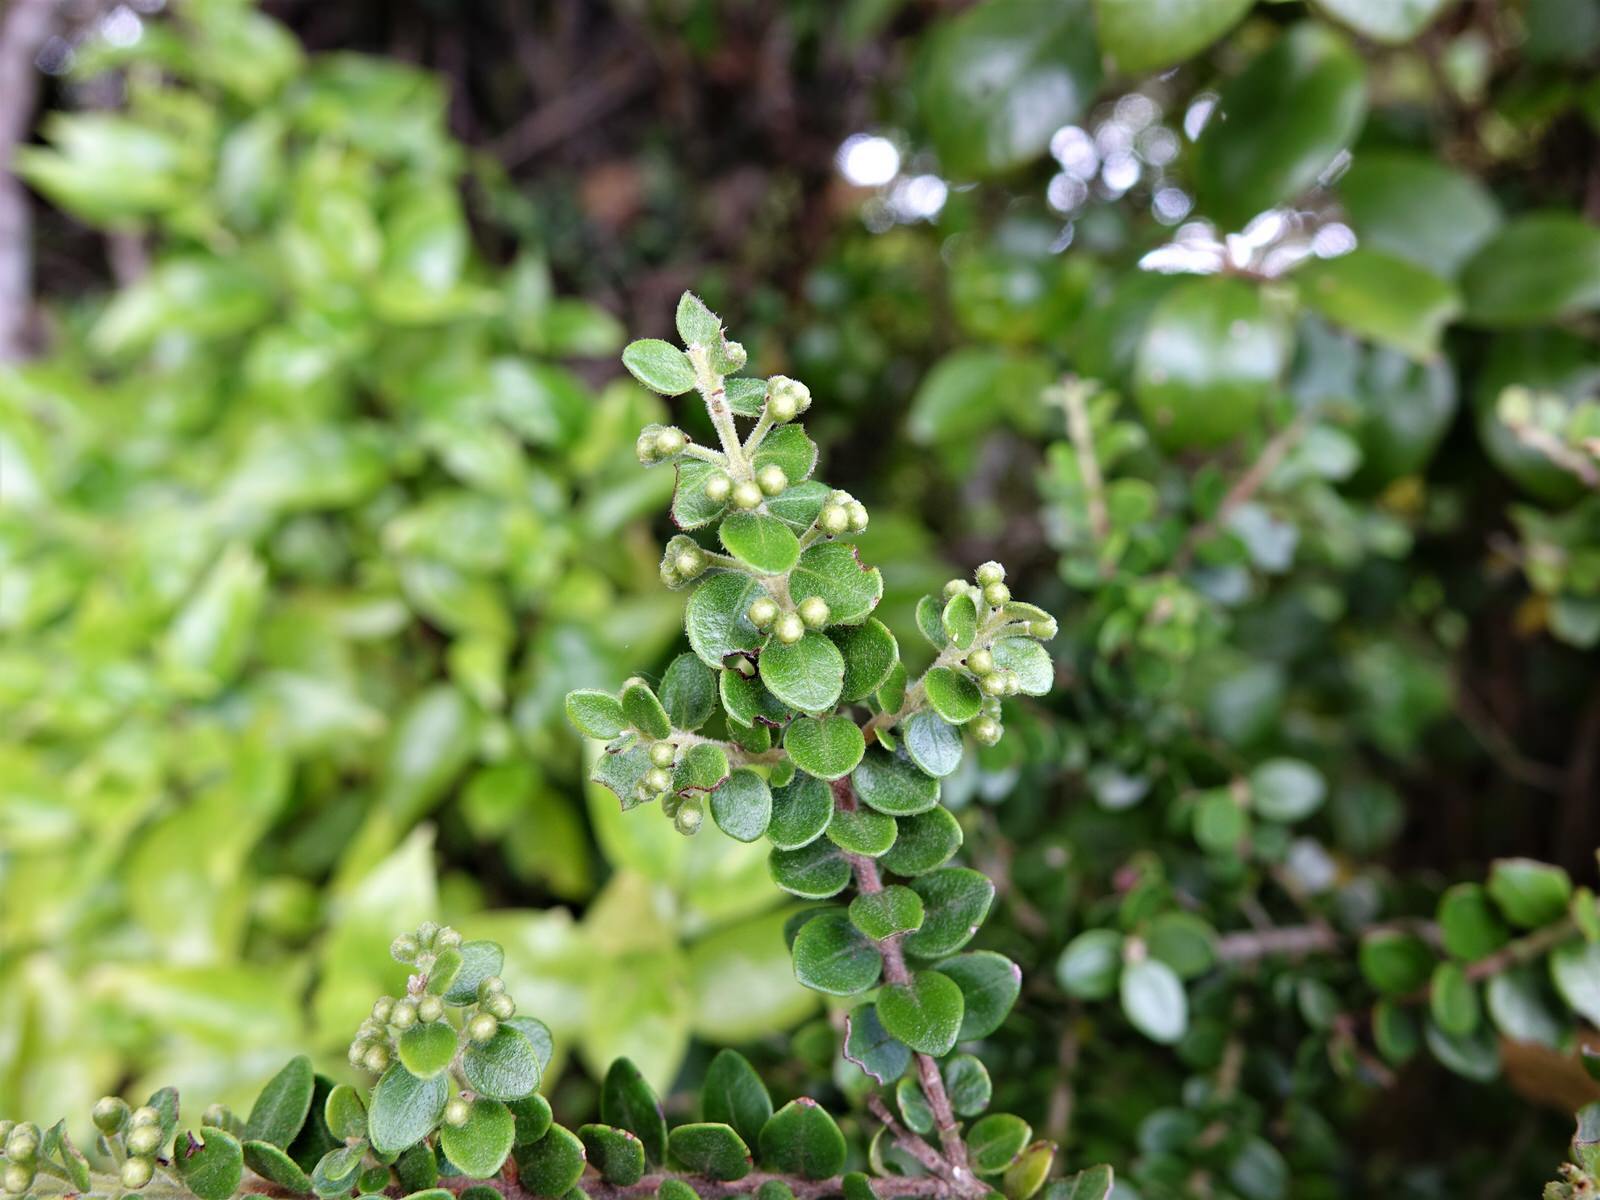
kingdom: Plantae
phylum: Tracheophyta
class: Magnoliopsida
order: Myrtales
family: Myrtaceae
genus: Metrosideros
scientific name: Metrosideros perforata
